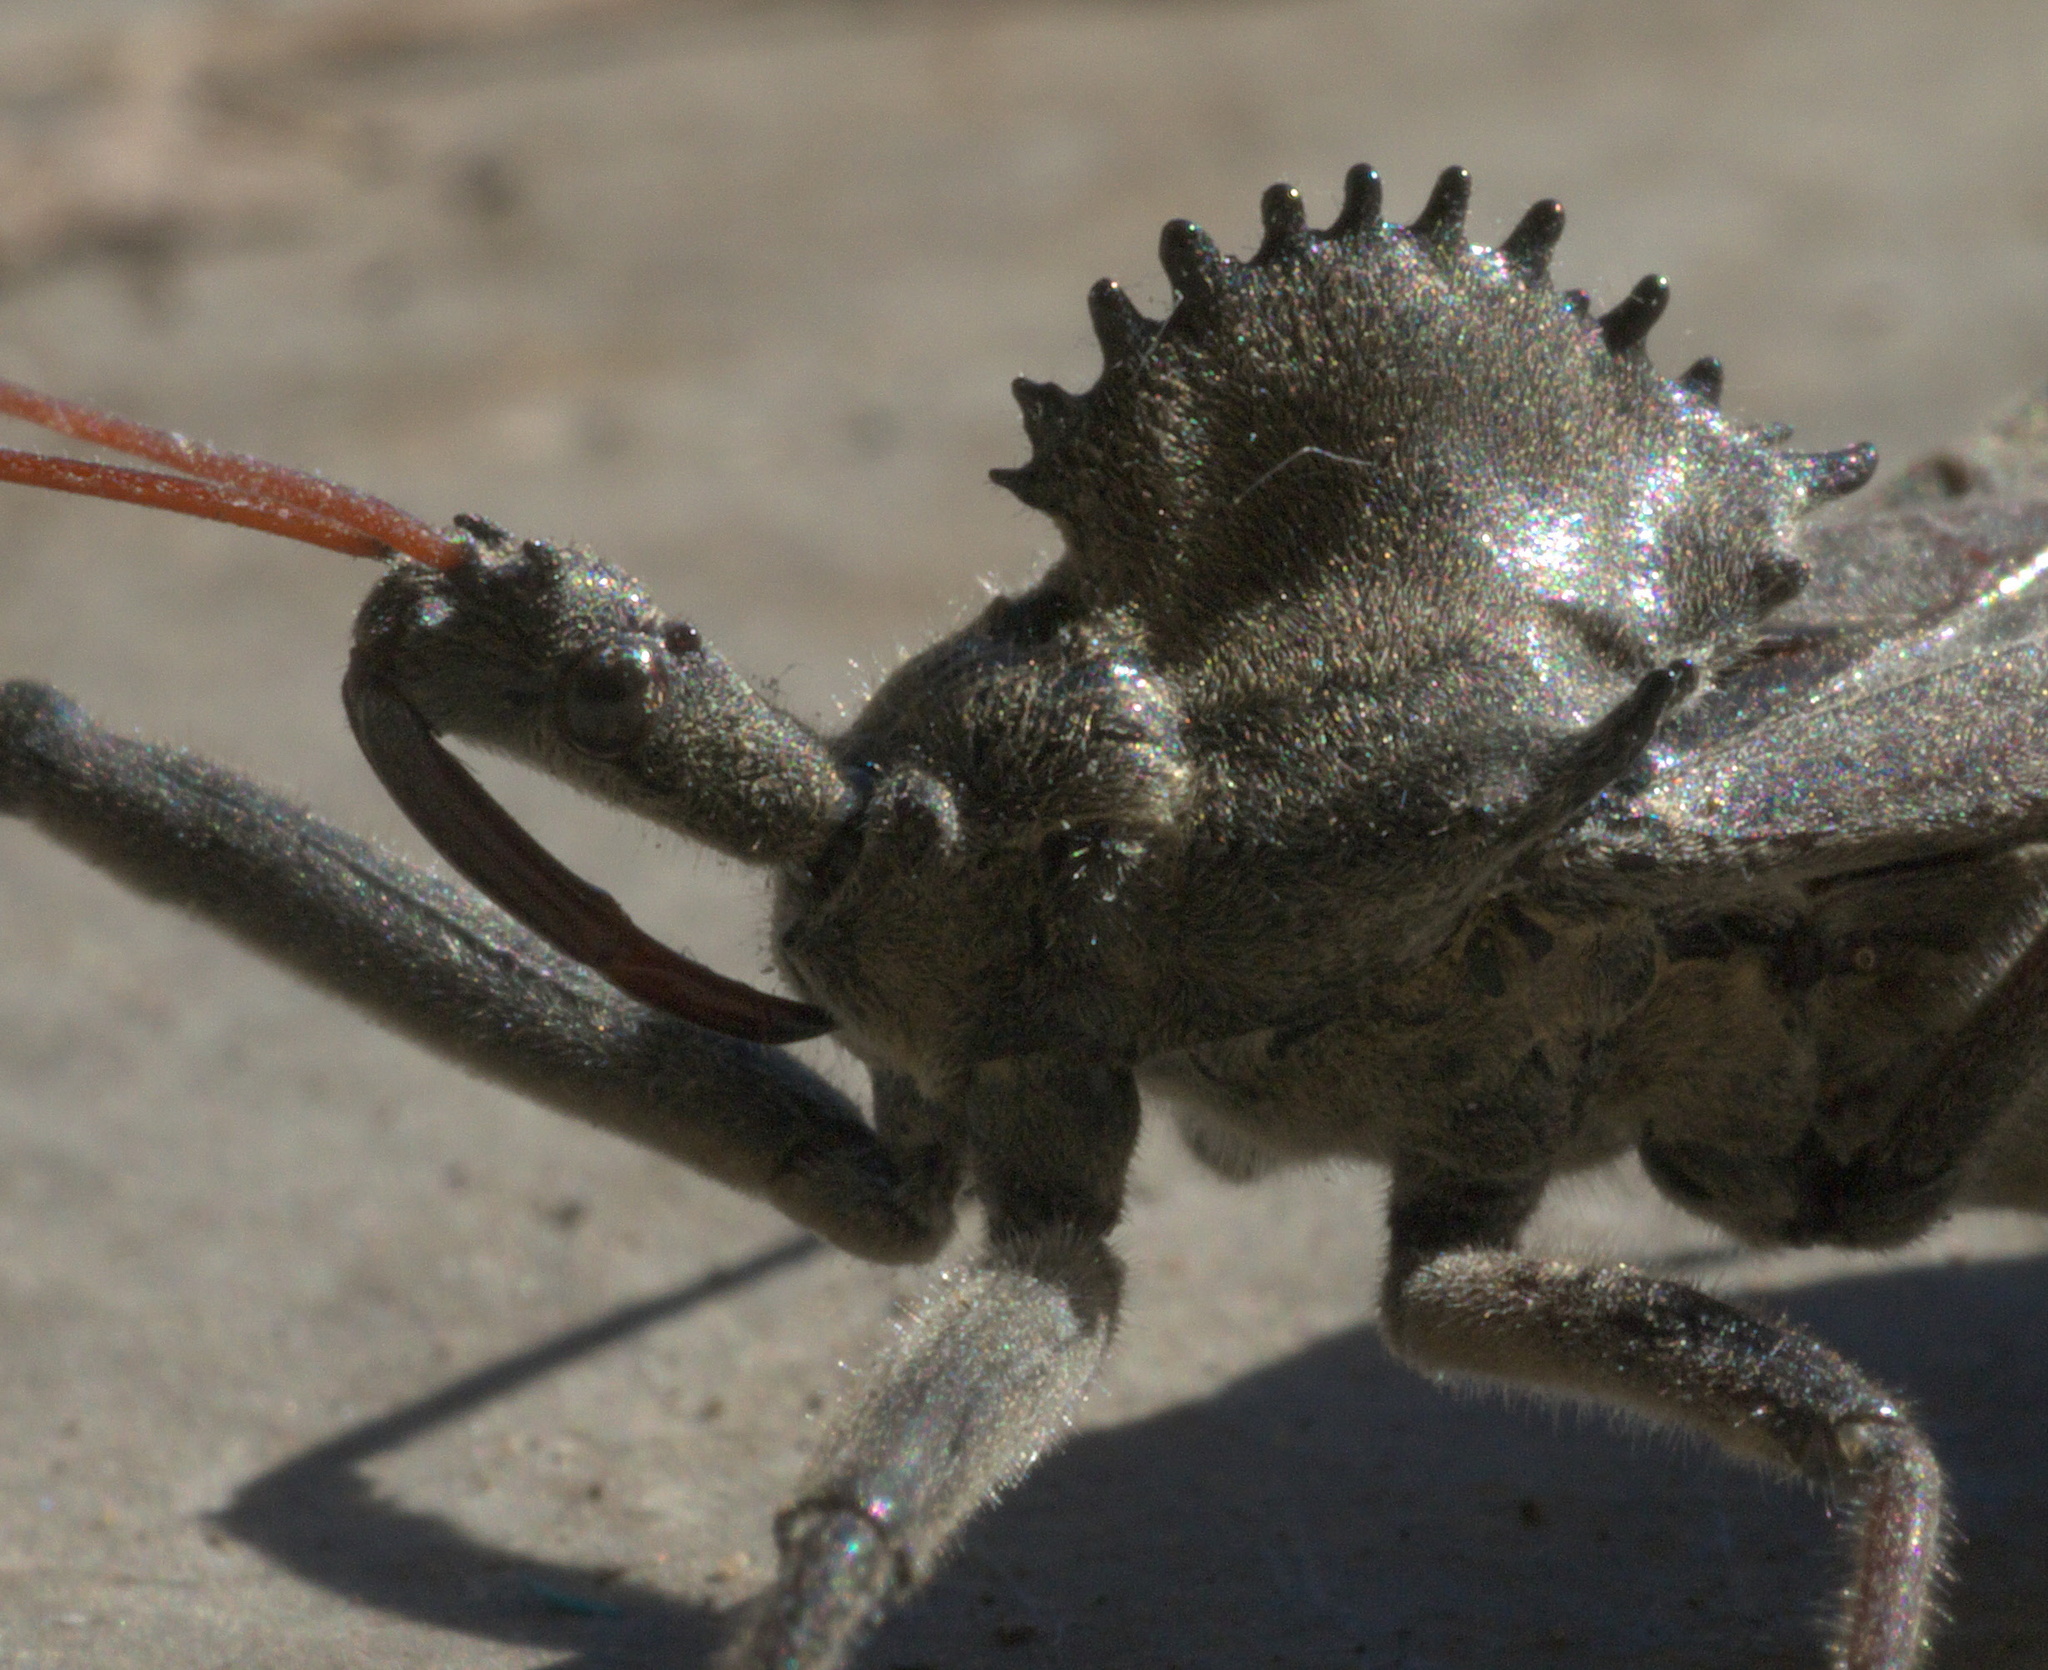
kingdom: Animalia
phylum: Arthropoda
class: Insecta
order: Hemiptera
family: Reduviidae
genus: Arilus
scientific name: Arilus cristatus
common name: North american wheel bug
